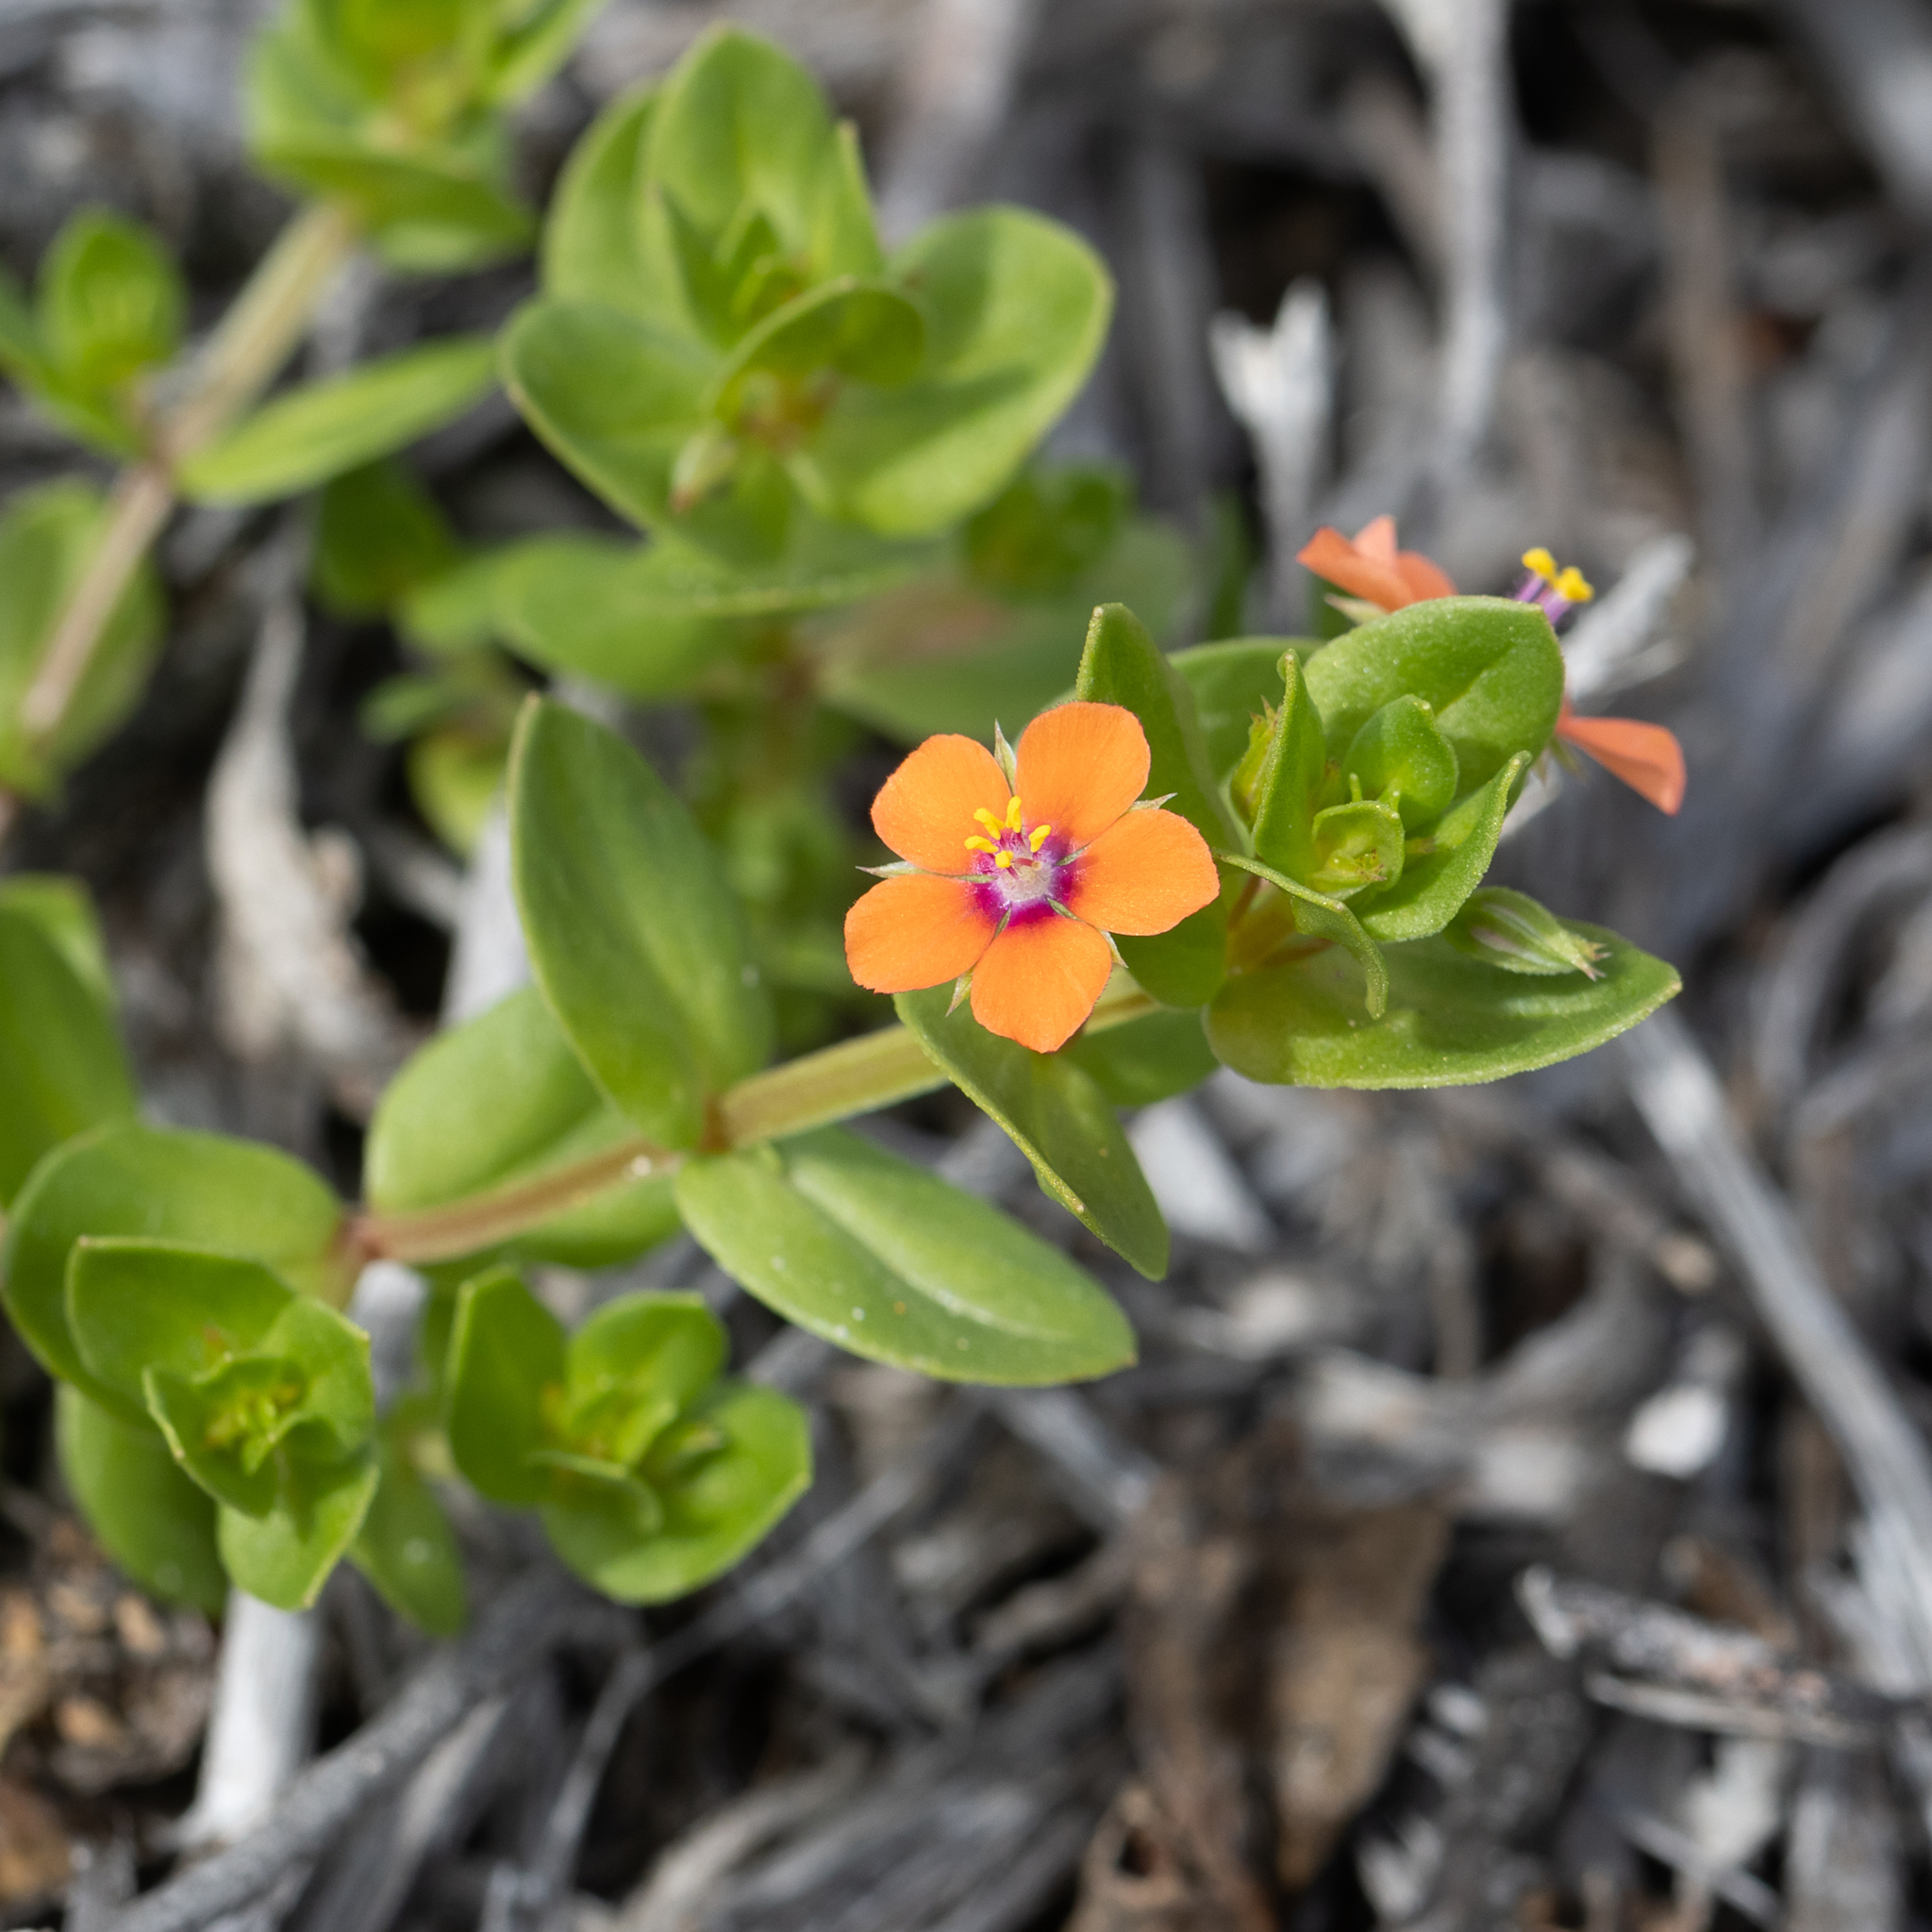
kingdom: Plantae
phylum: Tracheophyta
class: Magnoliopsida
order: Ericales
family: Primulaceae
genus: Lysimachia
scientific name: Lysimachia arvensis
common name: Scarlet pimpernel
